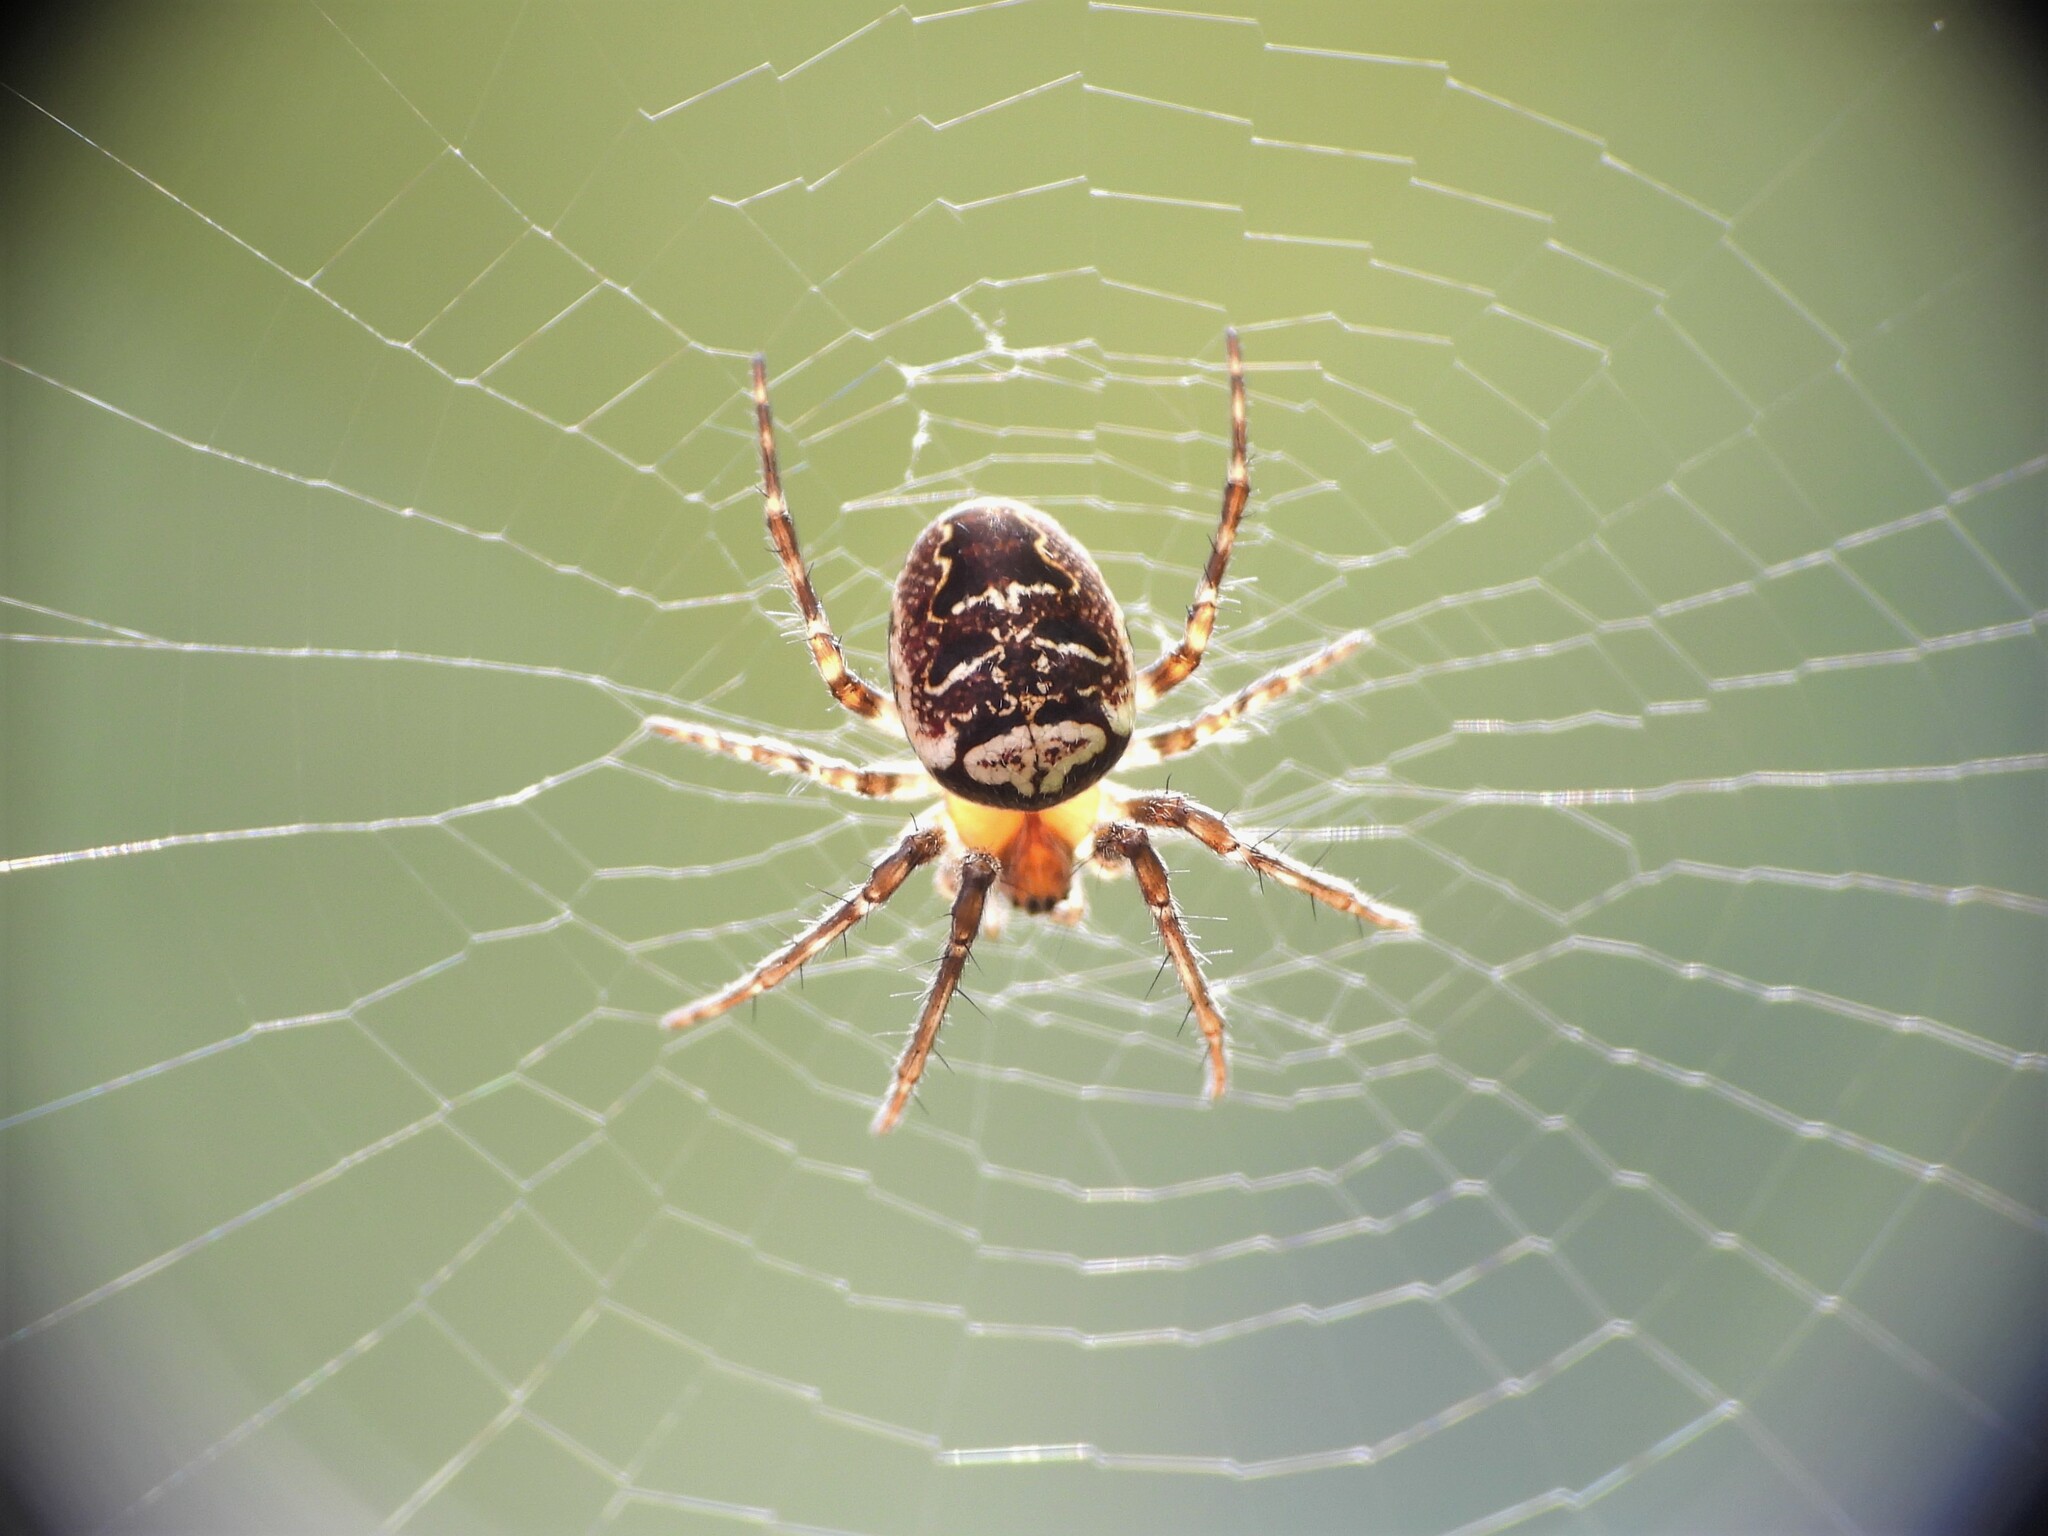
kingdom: Animalia
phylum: Arthropoda
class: Arachnida
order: Araneae
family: Araneidae
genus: Zilla
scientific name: Zilla diodia
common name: Zilla diodia
